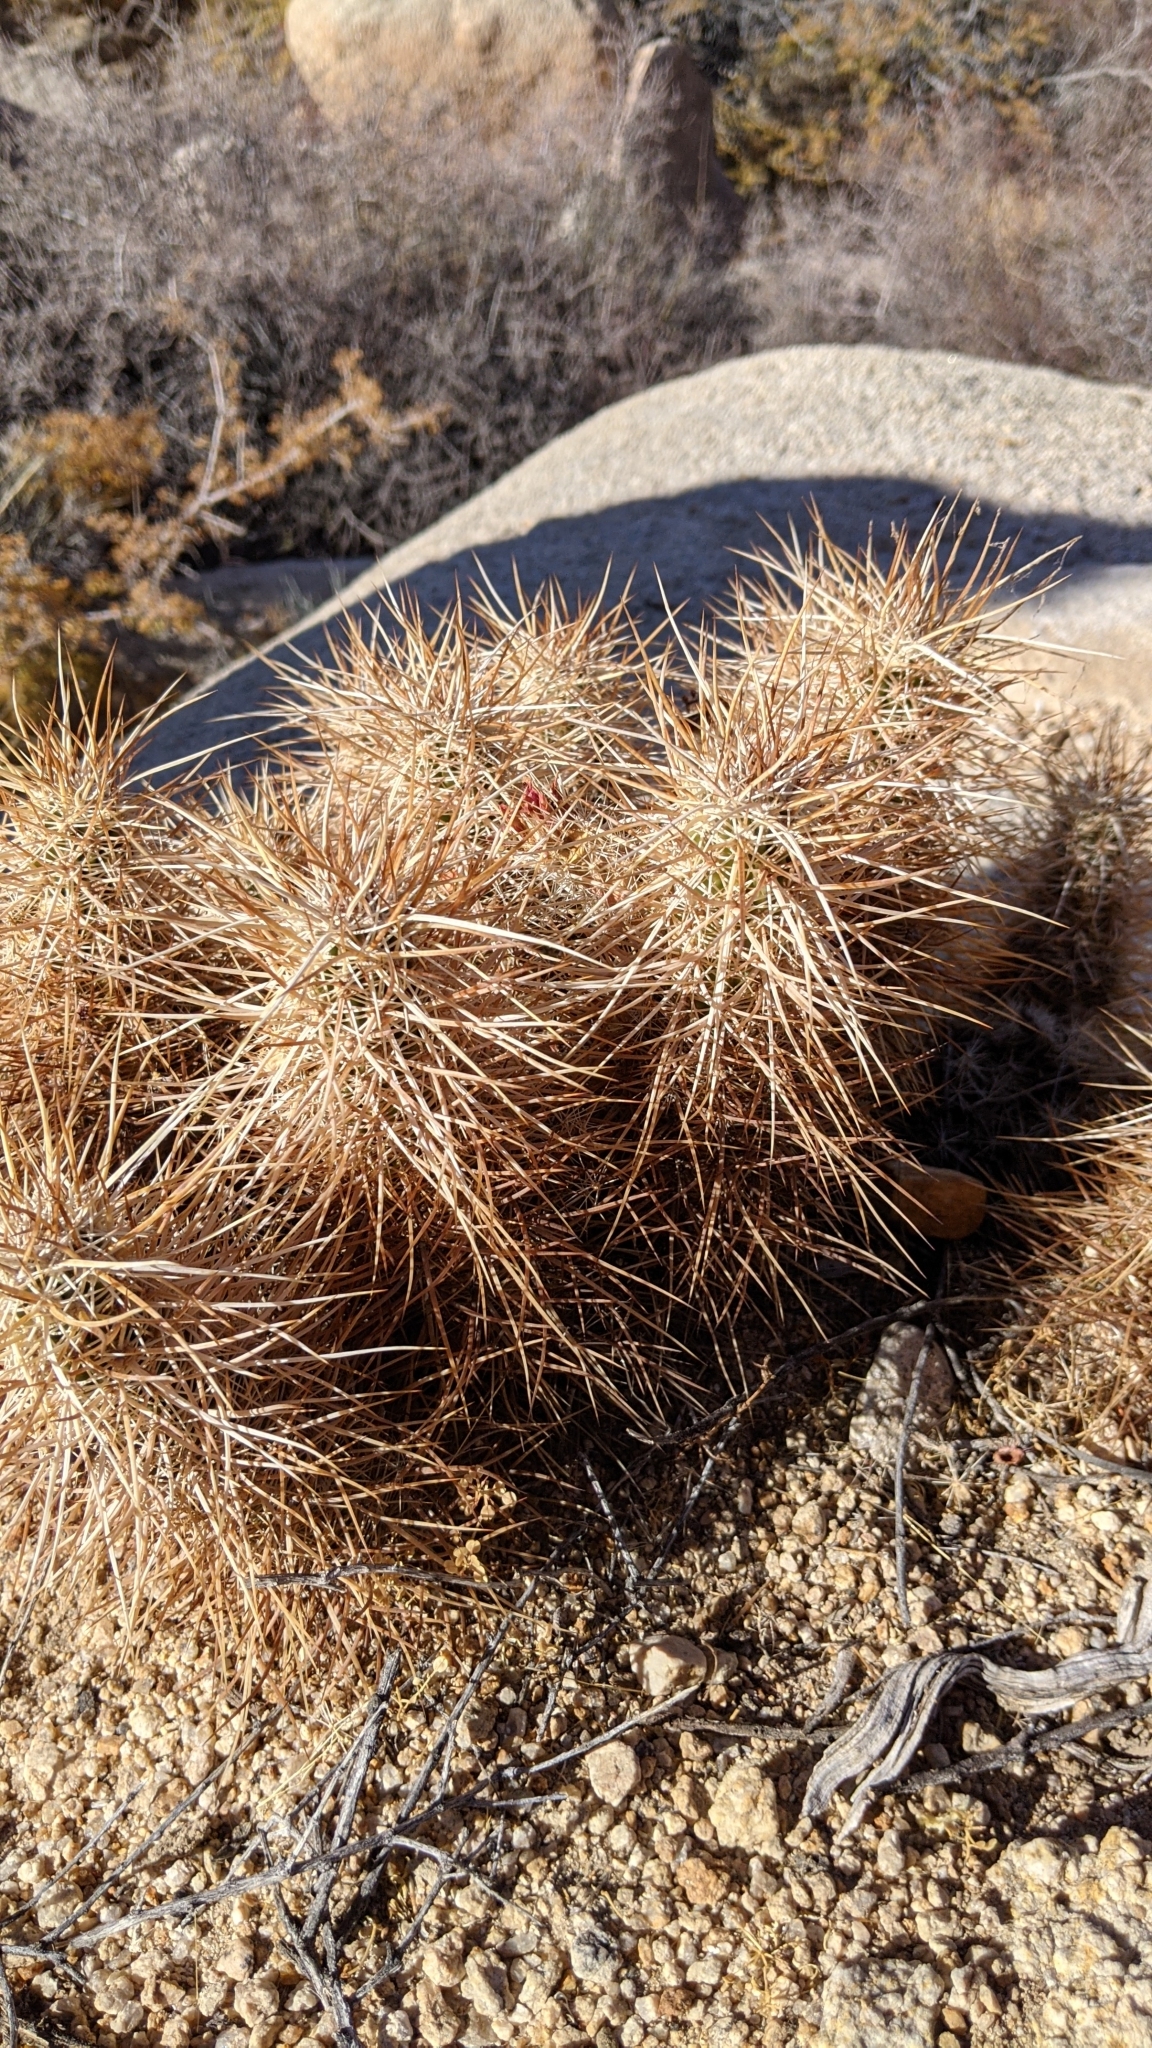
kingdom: Plantae
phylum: Tracheophyta
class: Magnoliopsida
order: Caryophyllales
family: Cactaceae
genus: Echinocereus
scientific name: Echinocereus engelmannii
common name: Engelmann's hedgehog cactus
